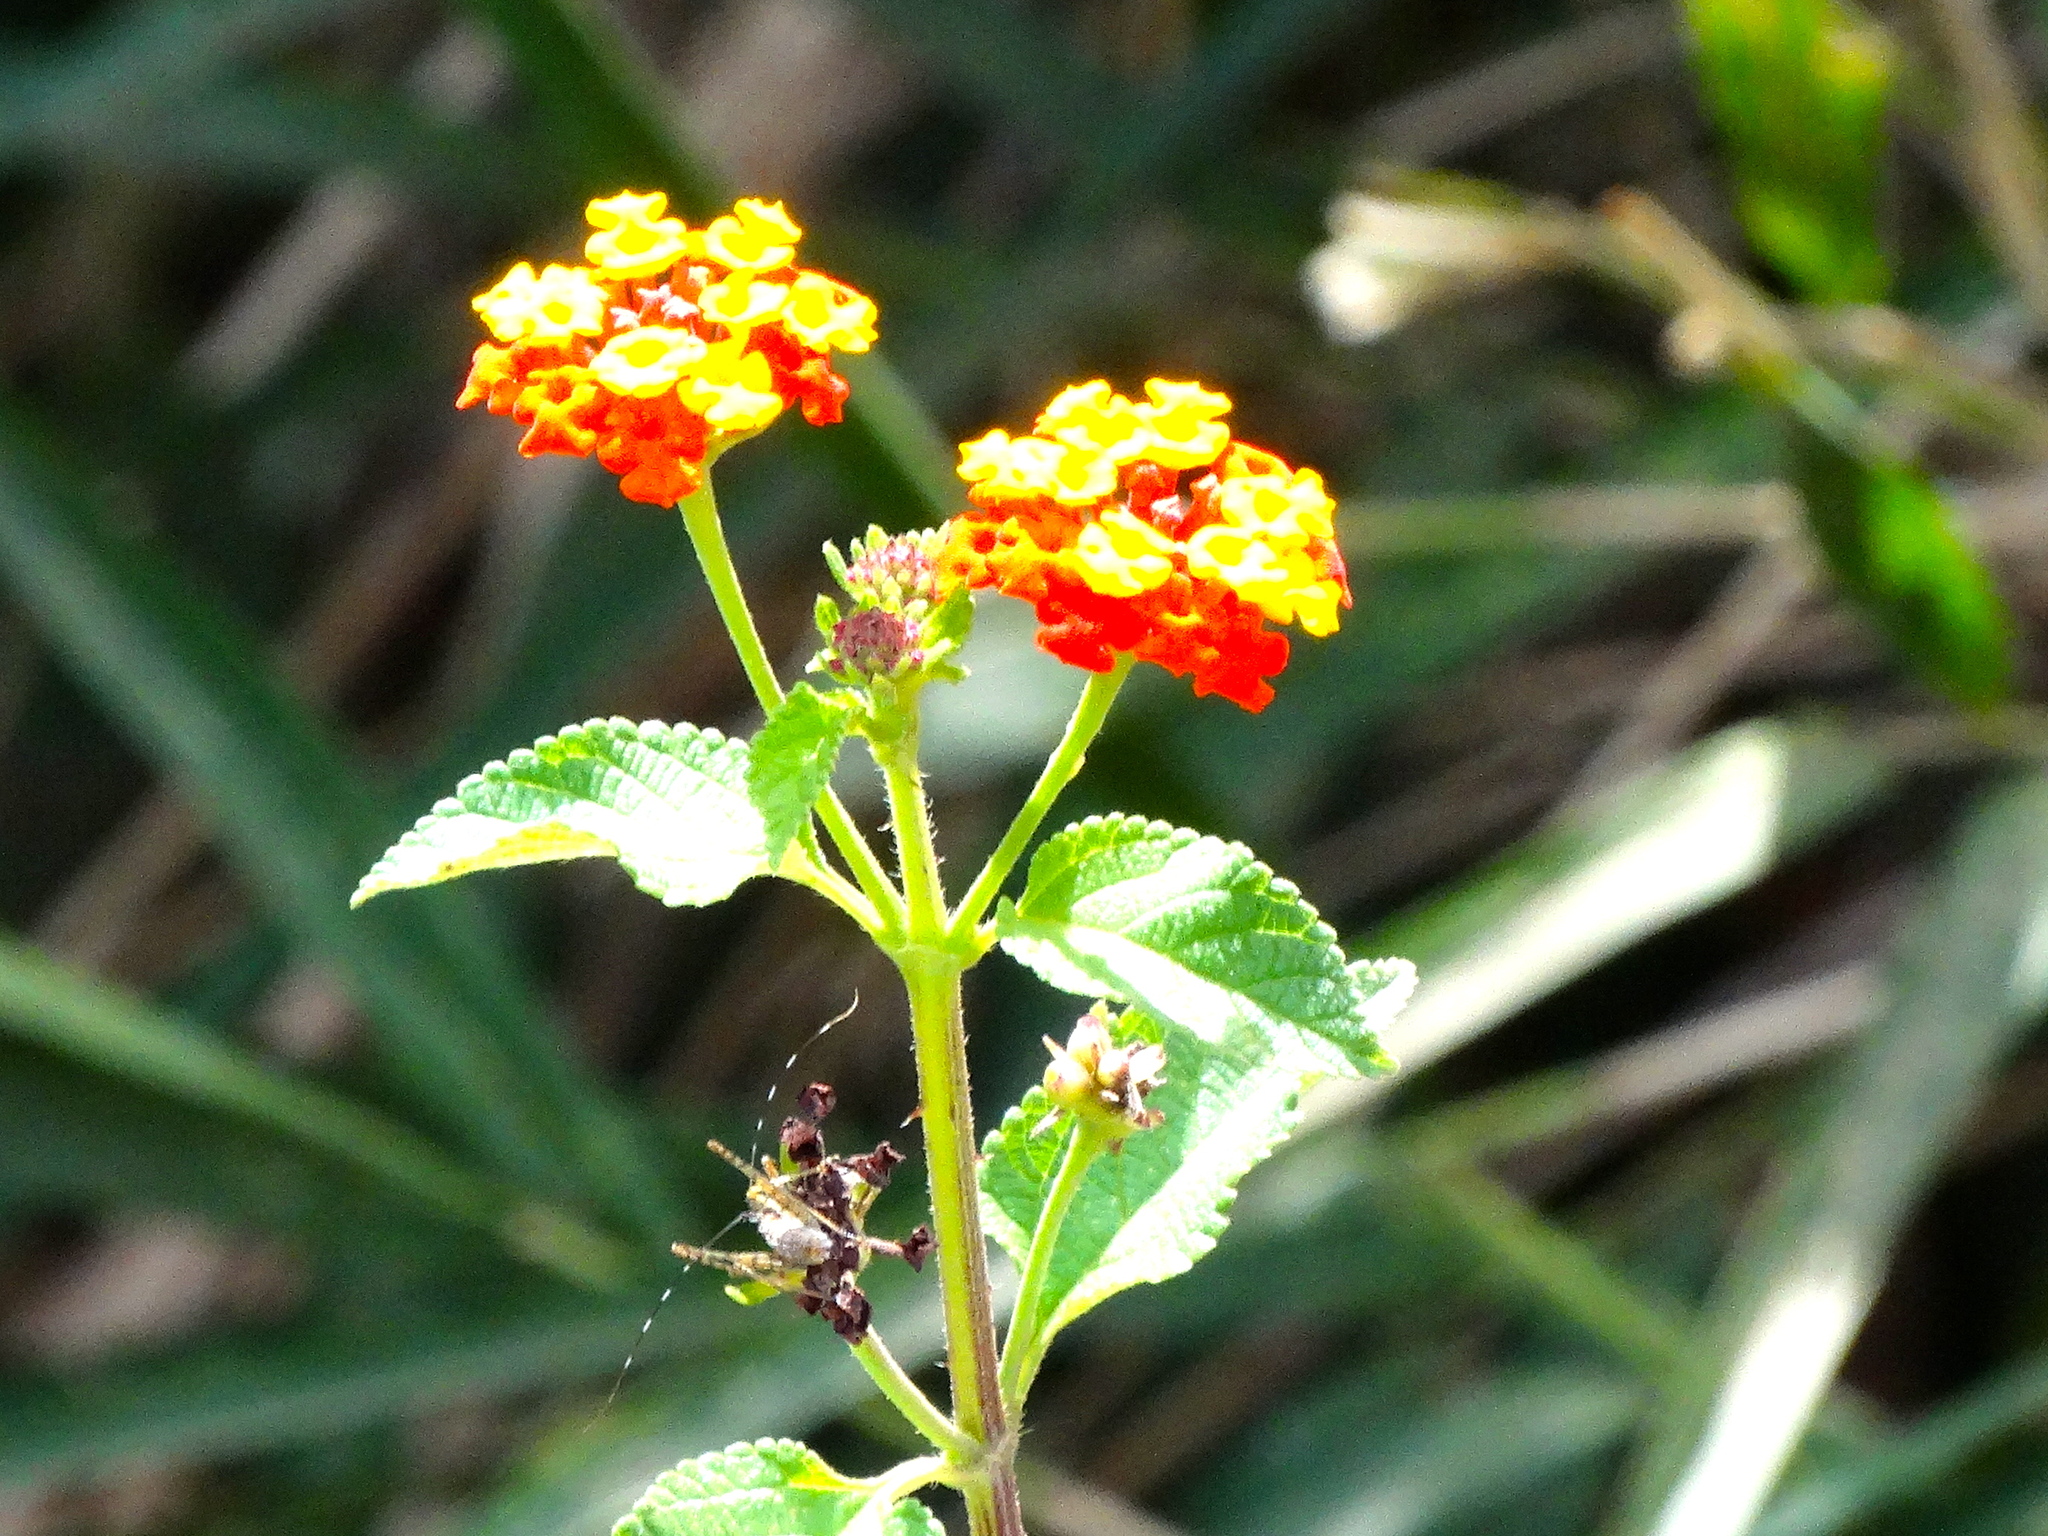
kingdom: Plantae
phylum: Tracheophyta
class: Magnoliopsida
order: Lamiales
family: Verbenaceae
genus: Lantana
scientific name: Lantana camara
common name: Lantana
